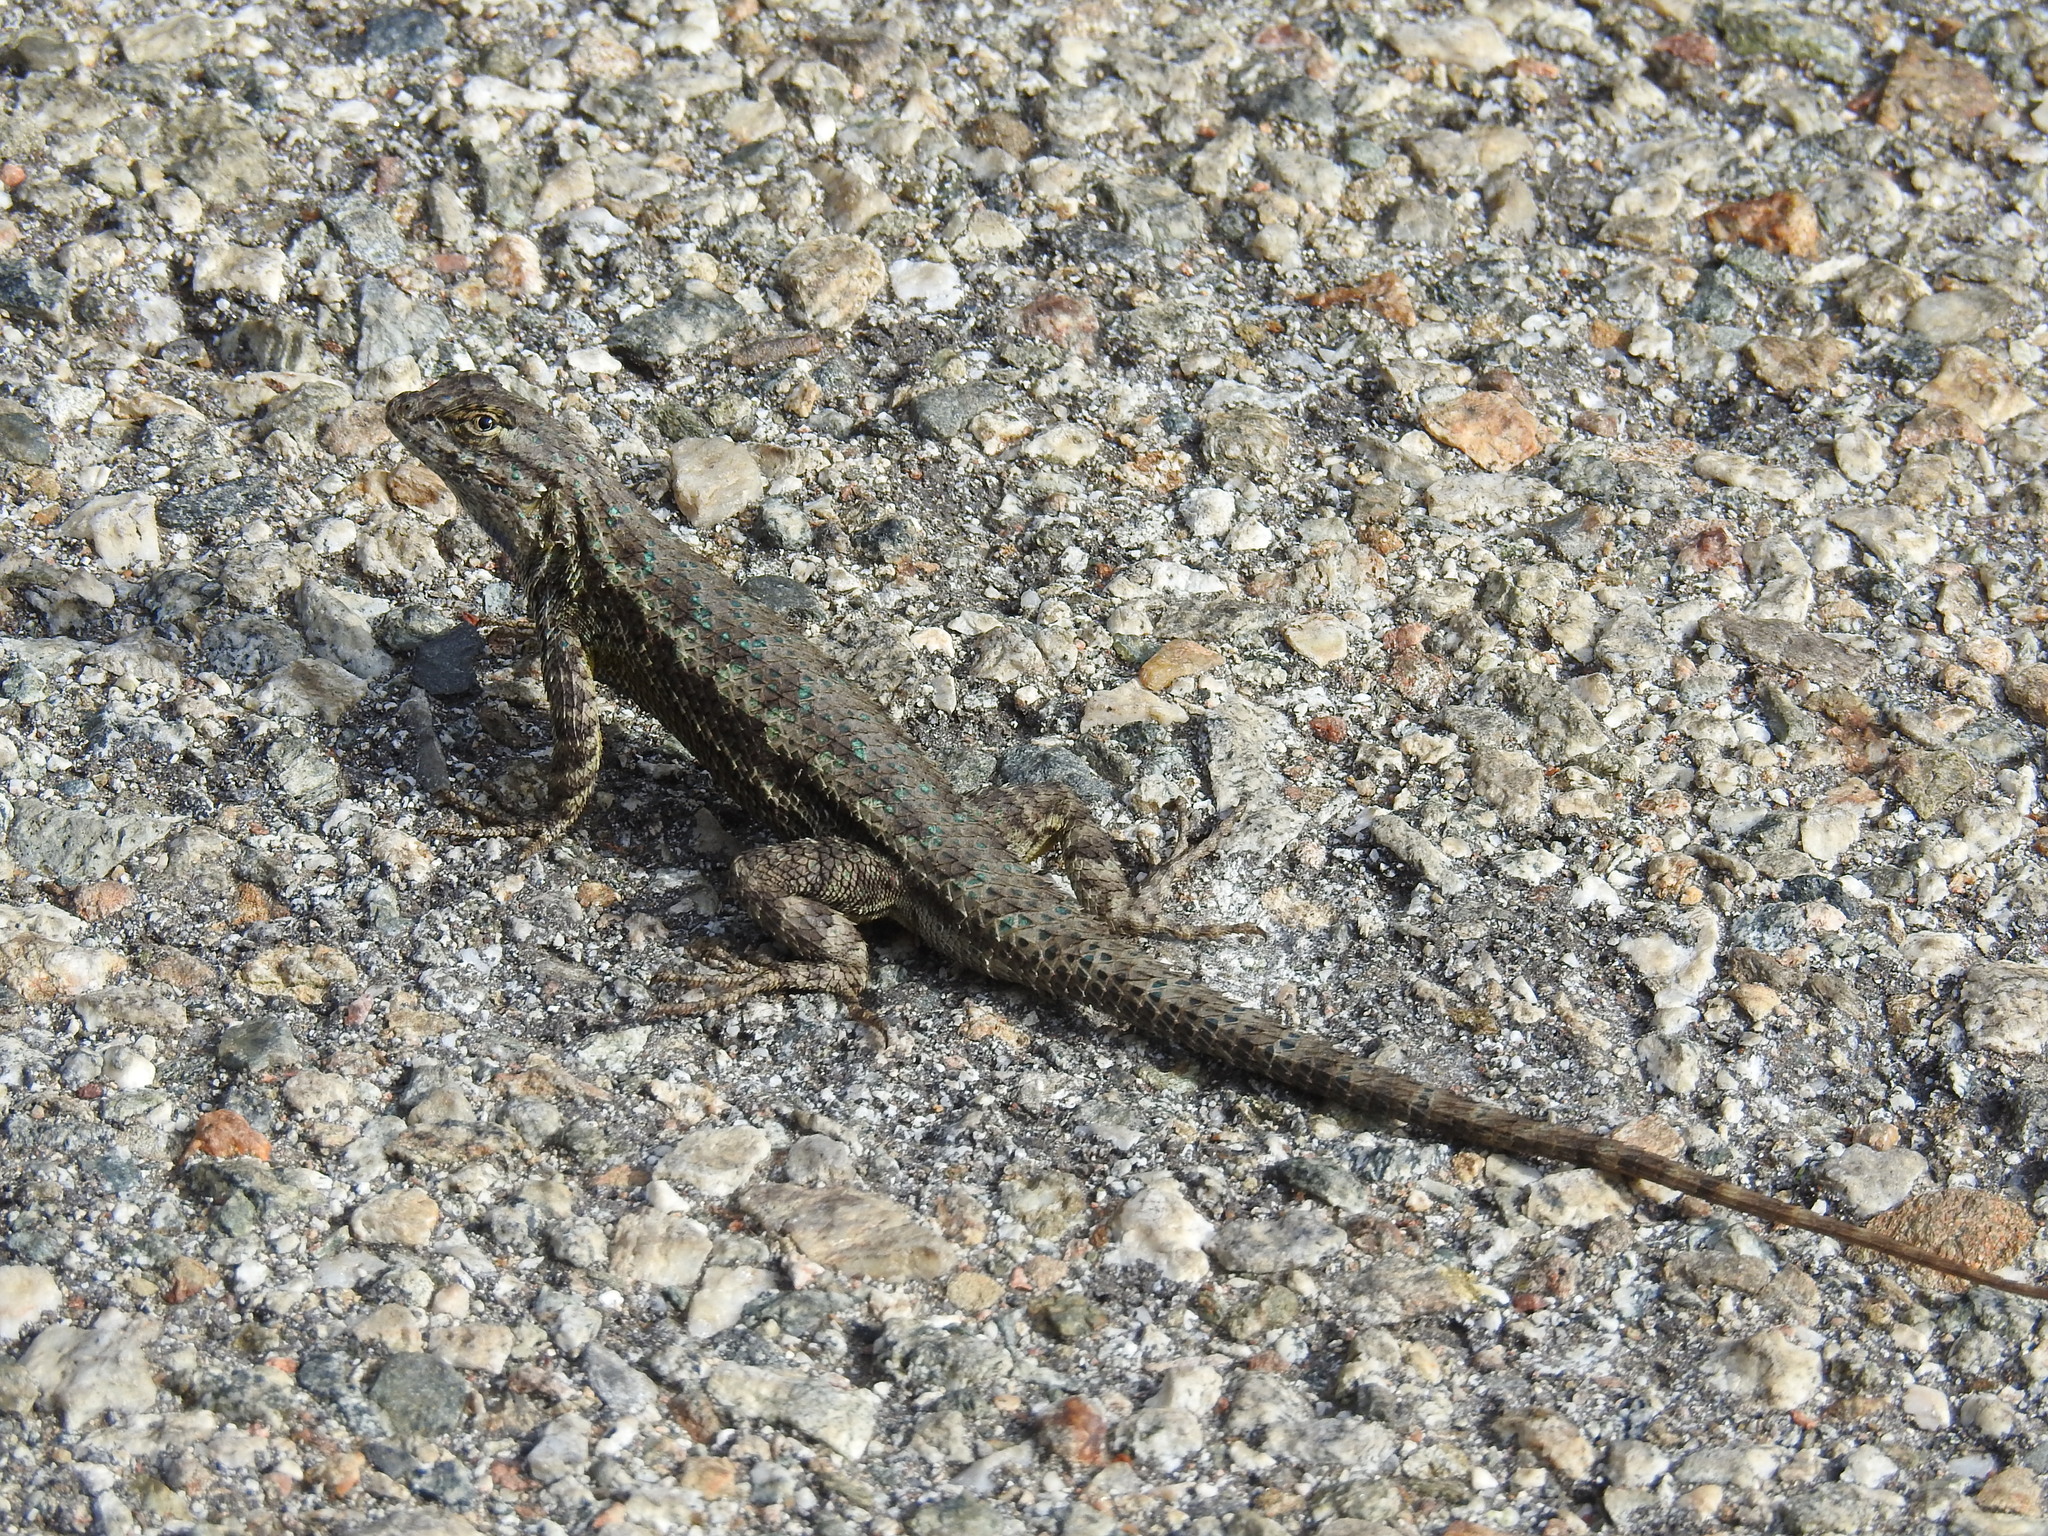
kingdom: Animalia
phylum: Chordata
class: Squamata
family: Phrynosomatidae
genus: Sceloporus
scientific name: Sceloporus occidentalis
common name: Western fence lizard
